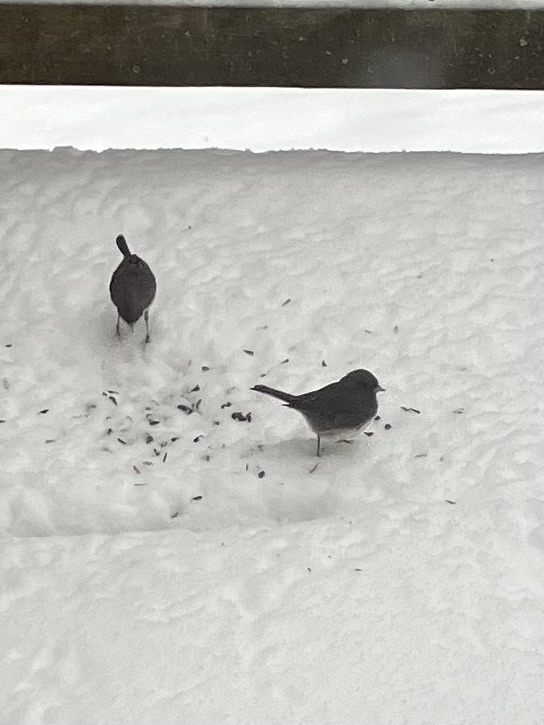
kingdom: Animalia
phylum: Chordata
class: Aves
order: Passeriformes
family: Passerellidae
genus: Junco
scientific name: Junco hyemalis
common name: Dark-eyed junco
